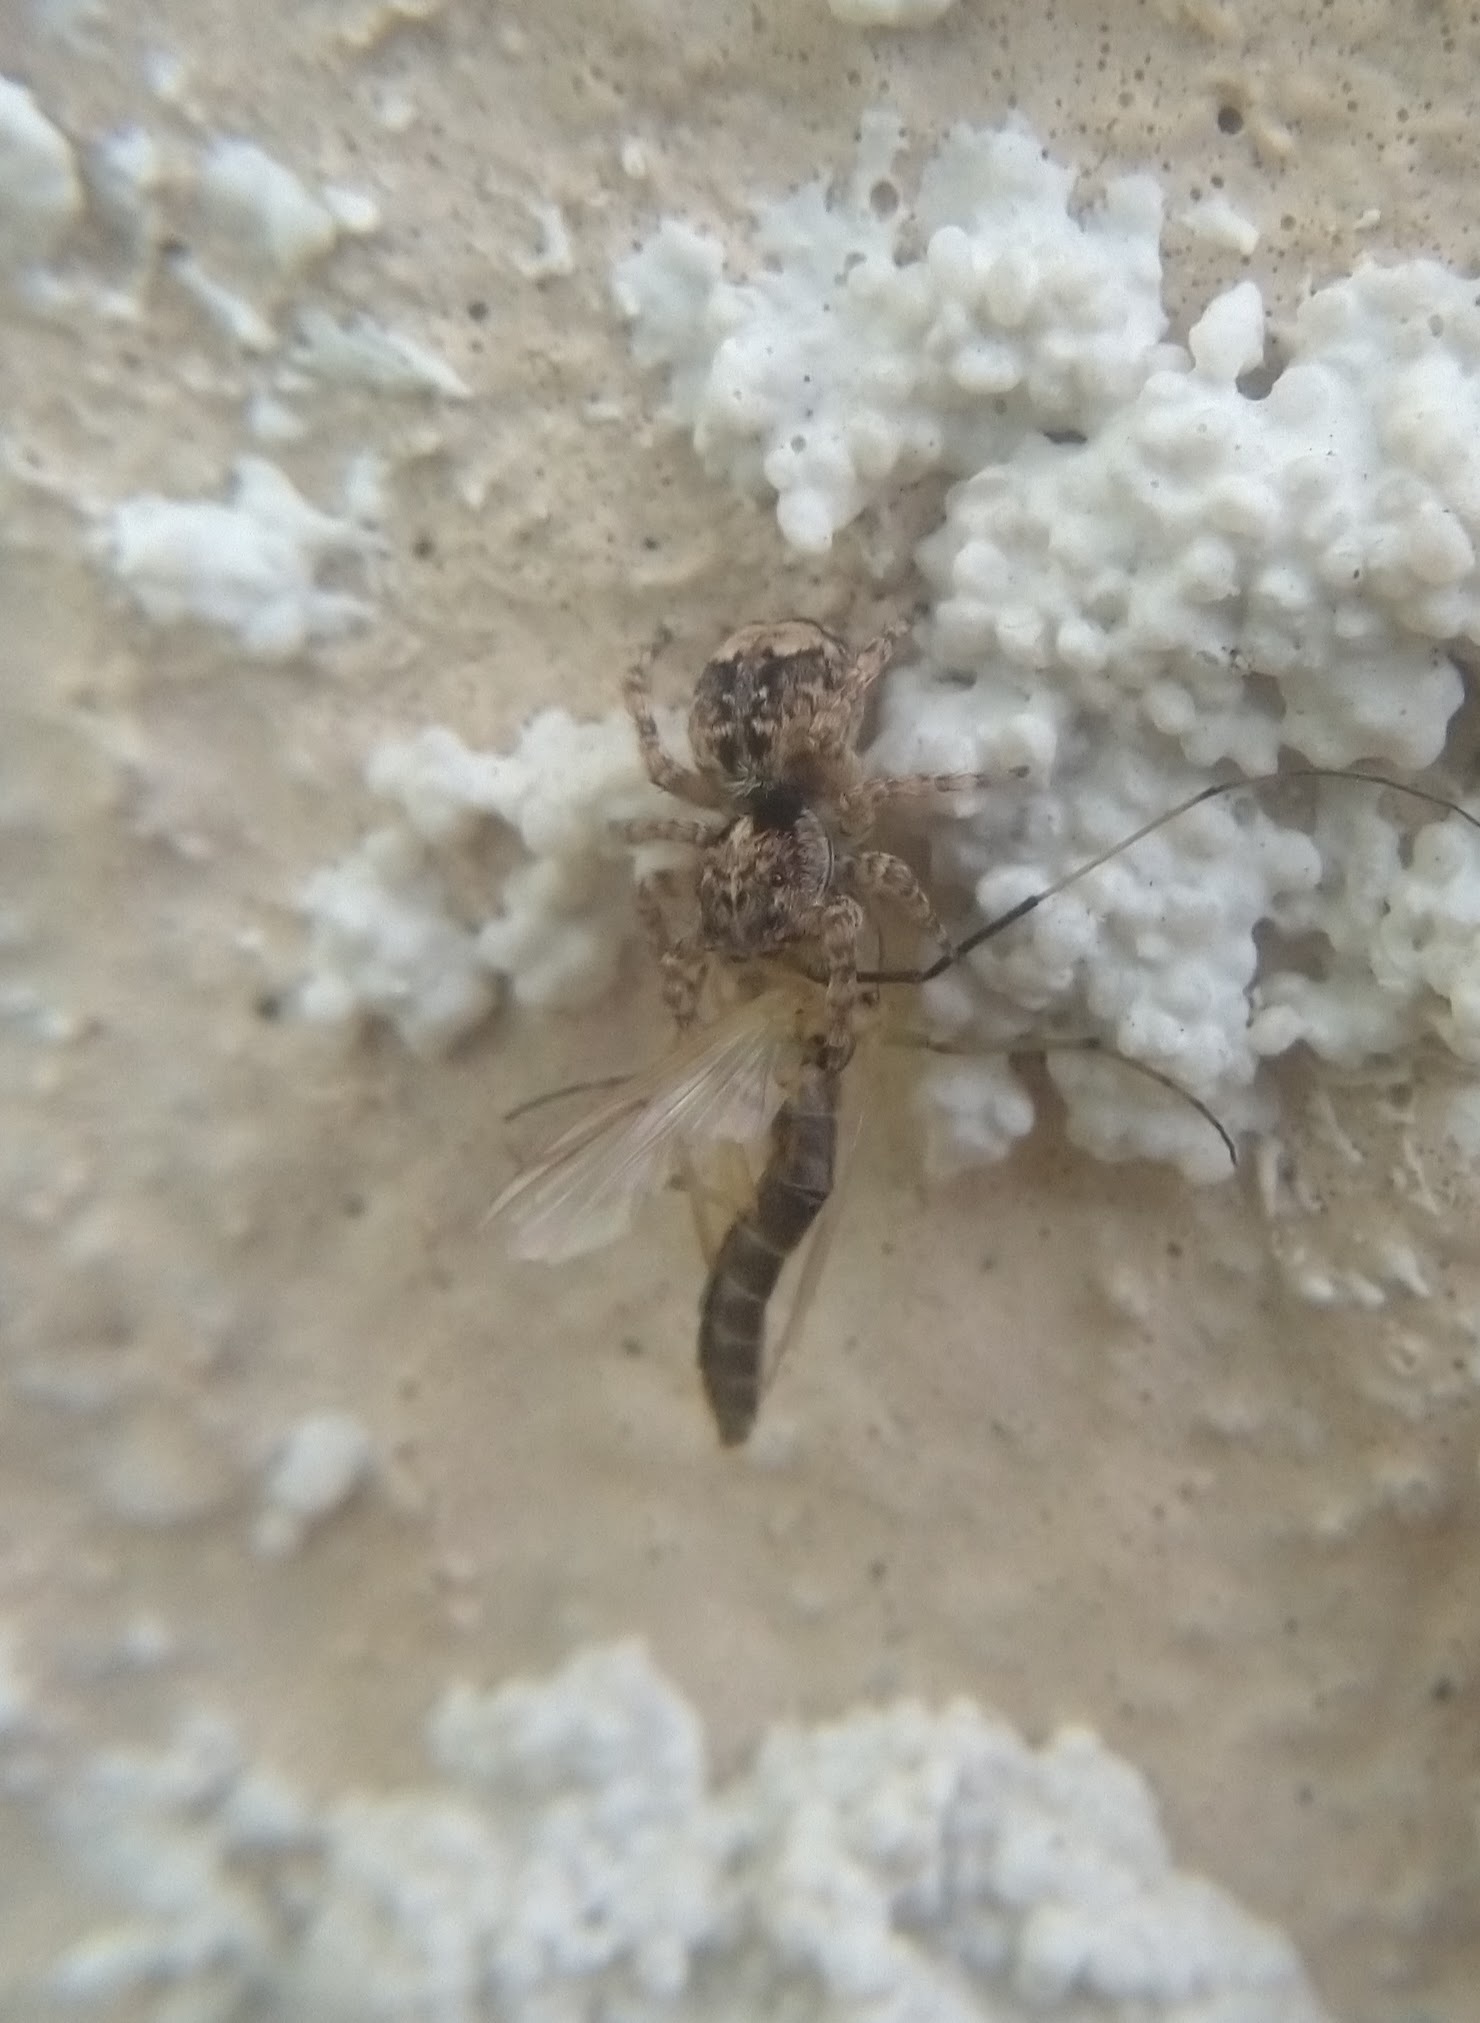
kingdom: Animalia
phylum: Arthropoda
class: Arachnida
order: Araneae
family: Salticidae
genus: Attulus
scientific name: Attulus fasciger
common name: Asiatic wall jumping spider
